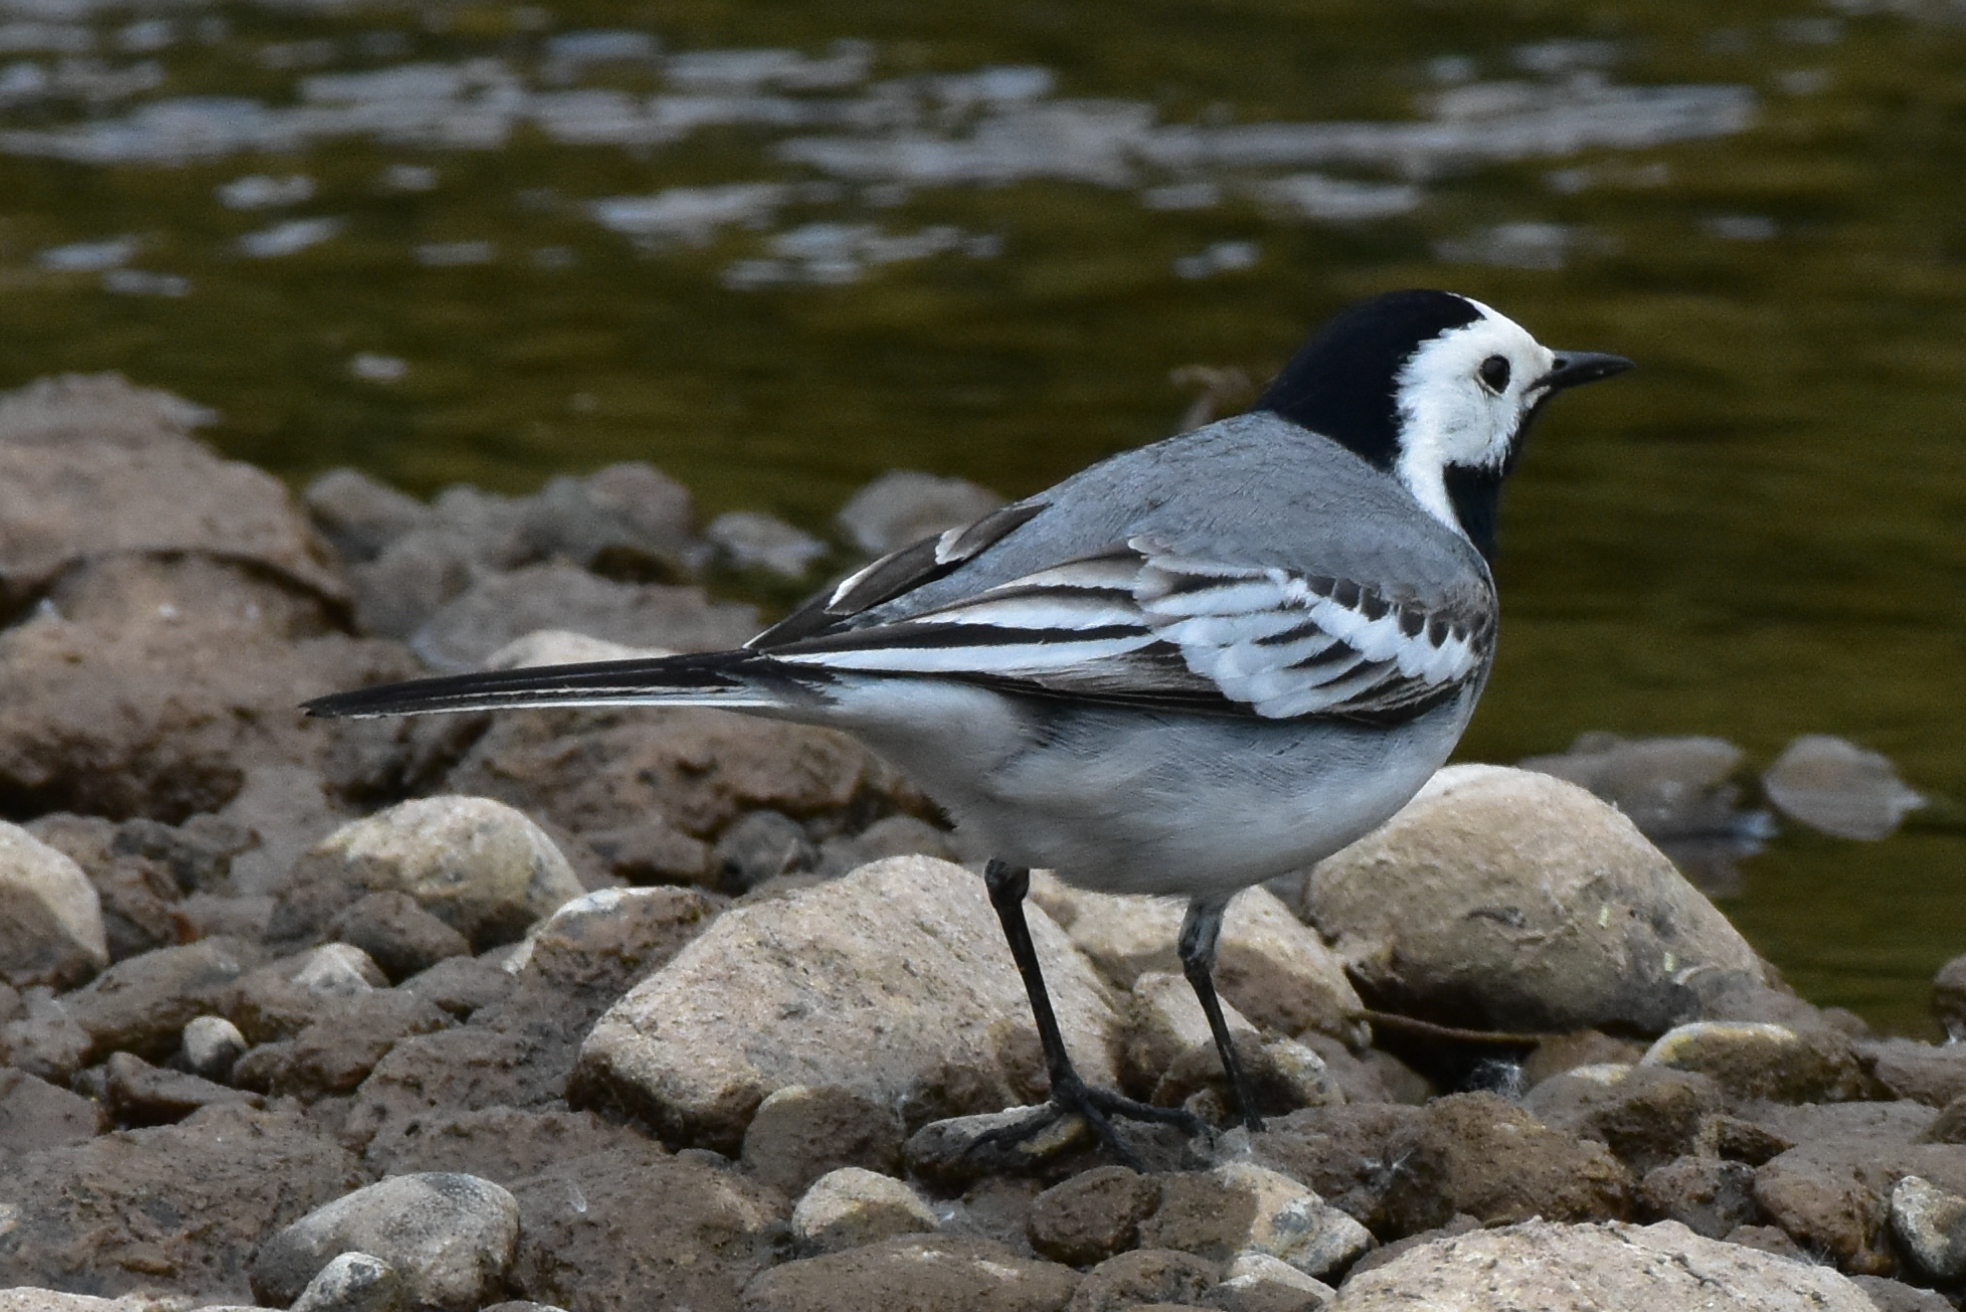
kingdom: Animalia
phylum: Chordata
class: Aves
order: Passeriformes
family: Motacillidae
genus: Motacilla
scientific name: Motacilla alba
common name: White wagtail
